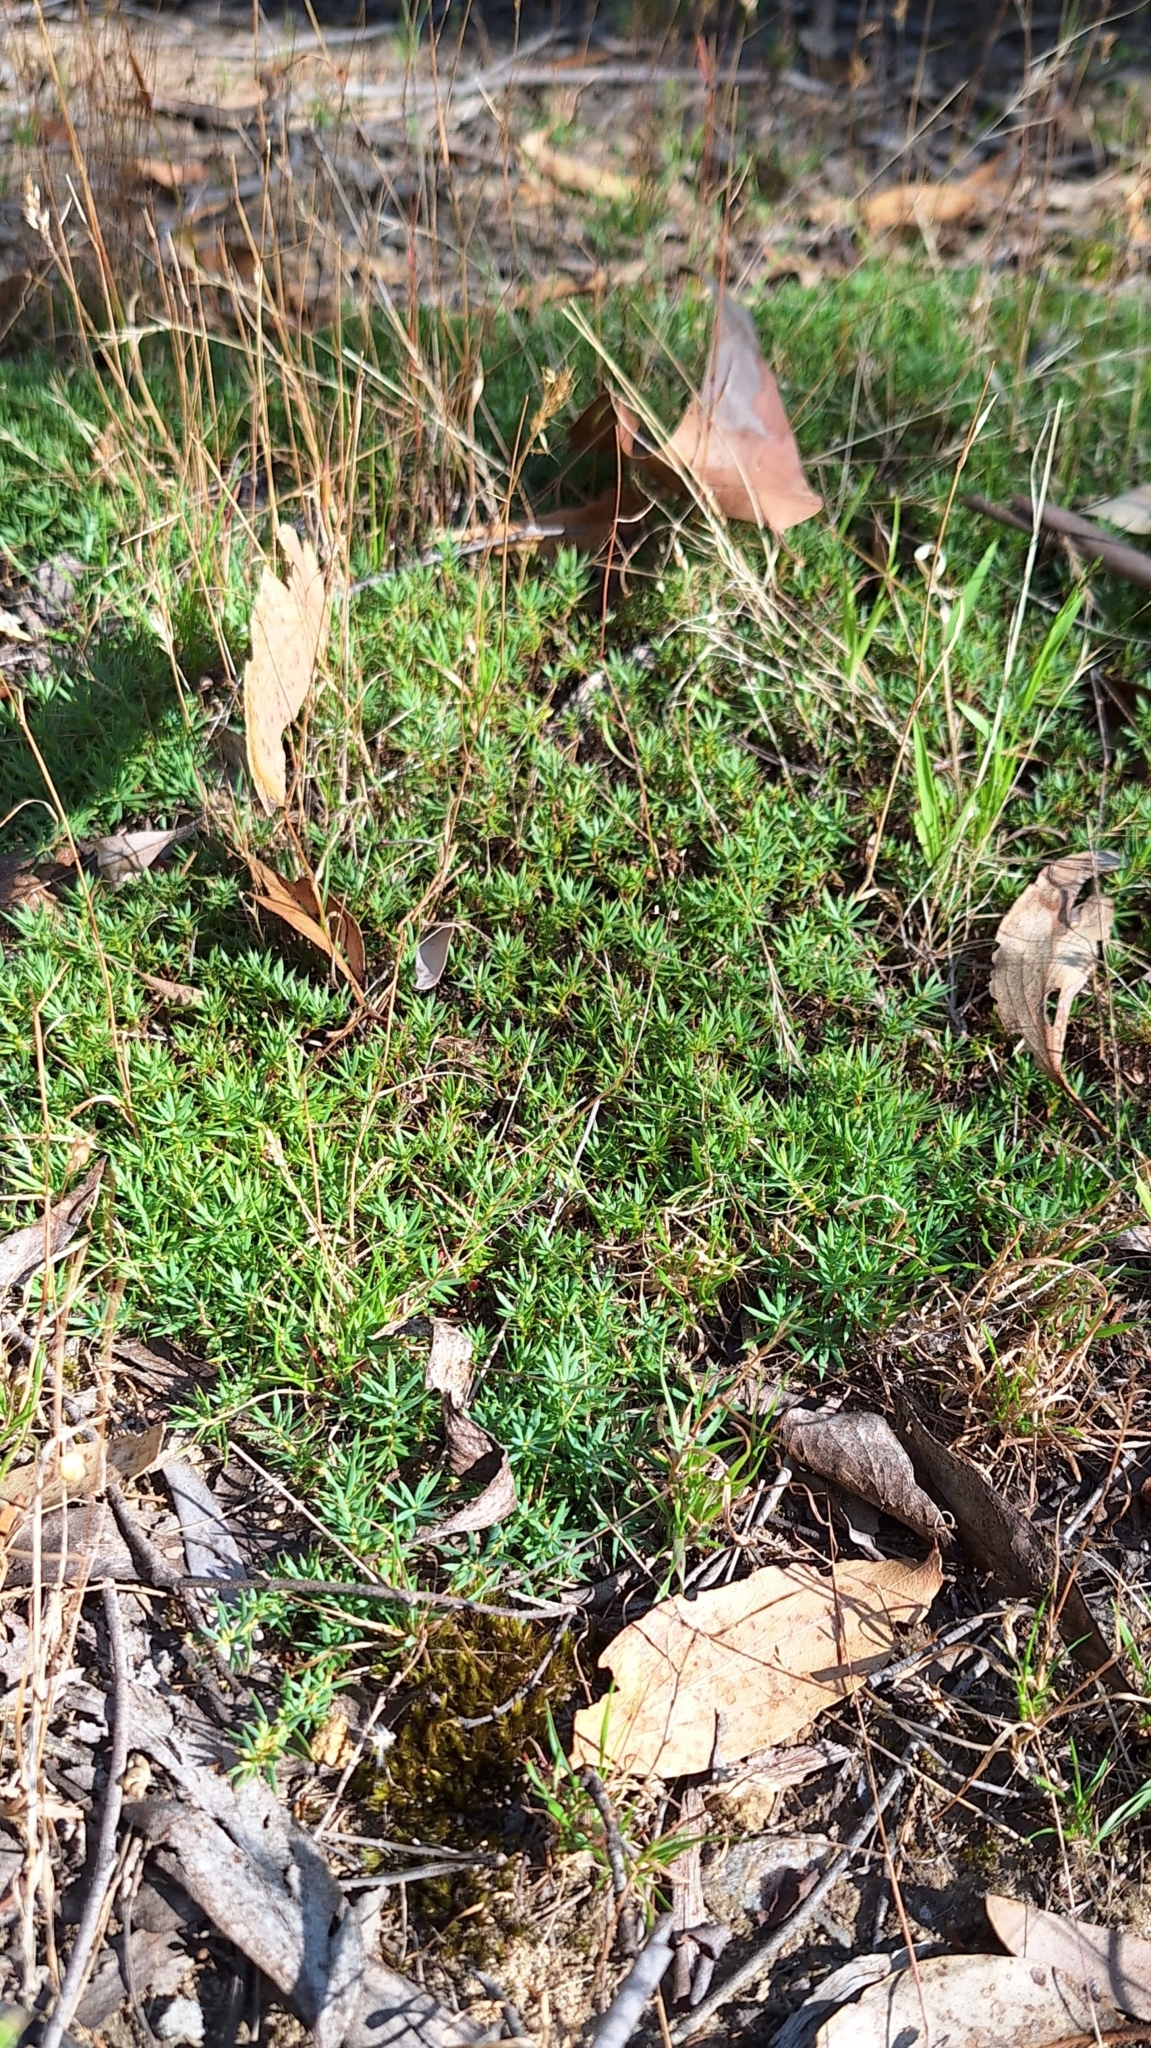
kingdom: Plantae
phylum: Tracheophyta
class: Magnoliopsida
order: Ericales
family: Ericaceae
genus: Styphelia
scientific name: Styphelia humifusa
